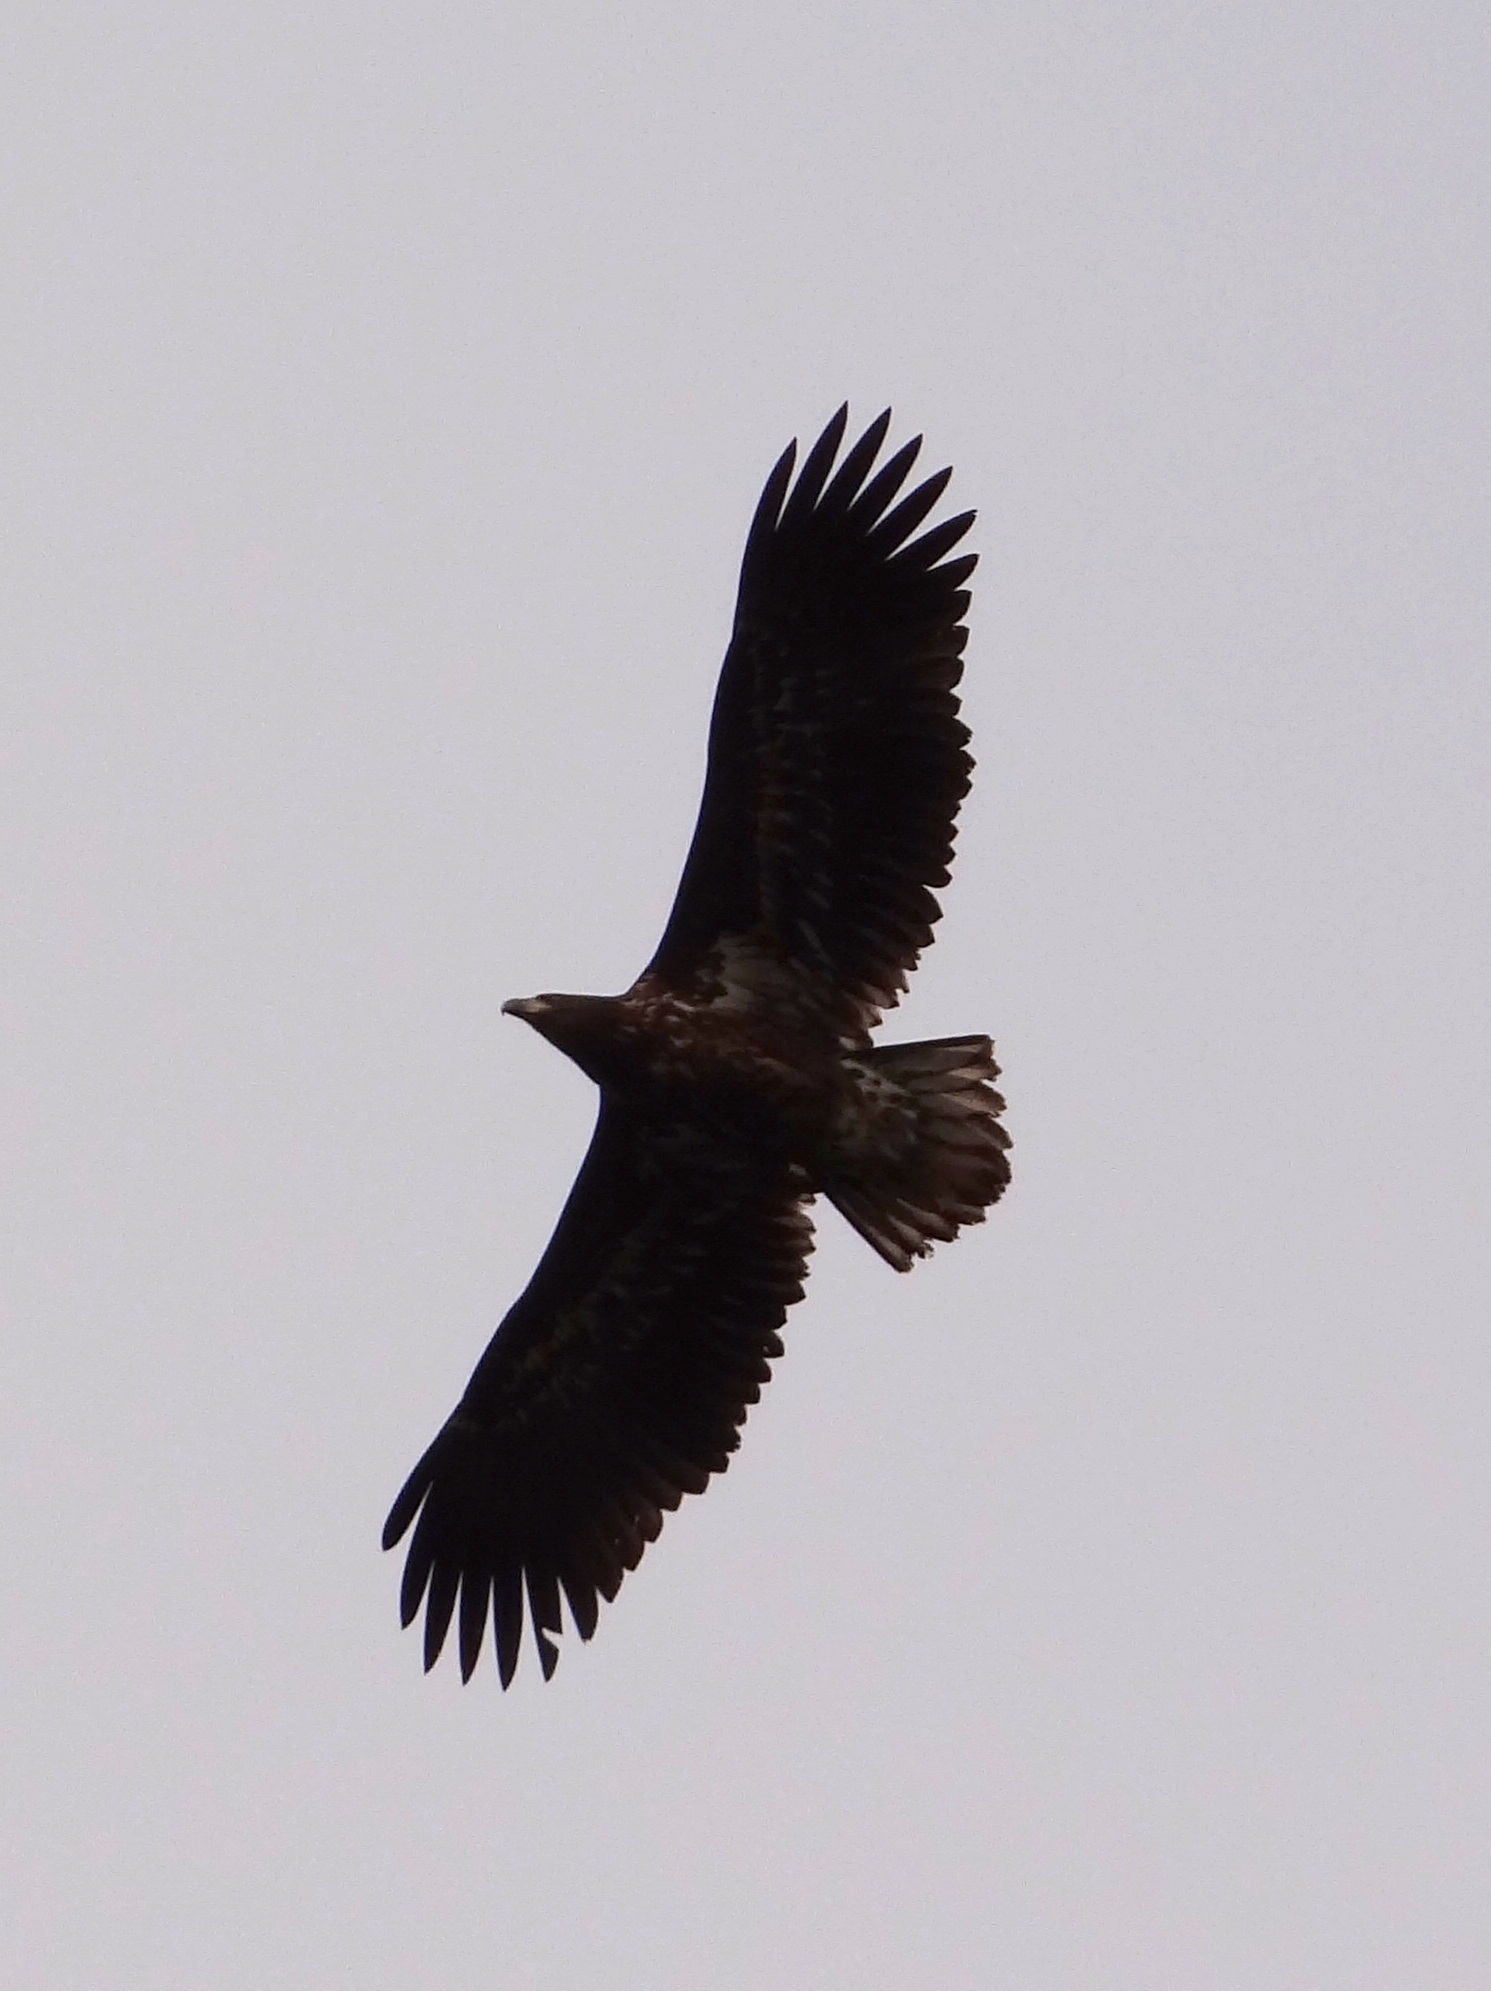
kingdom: Animalia
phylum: Chordata
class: Aves
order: Accipitriformes
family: Accipitridae
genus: Haliaeetus
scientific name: Haliaeetus albicilla
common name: White-tailed eagle
